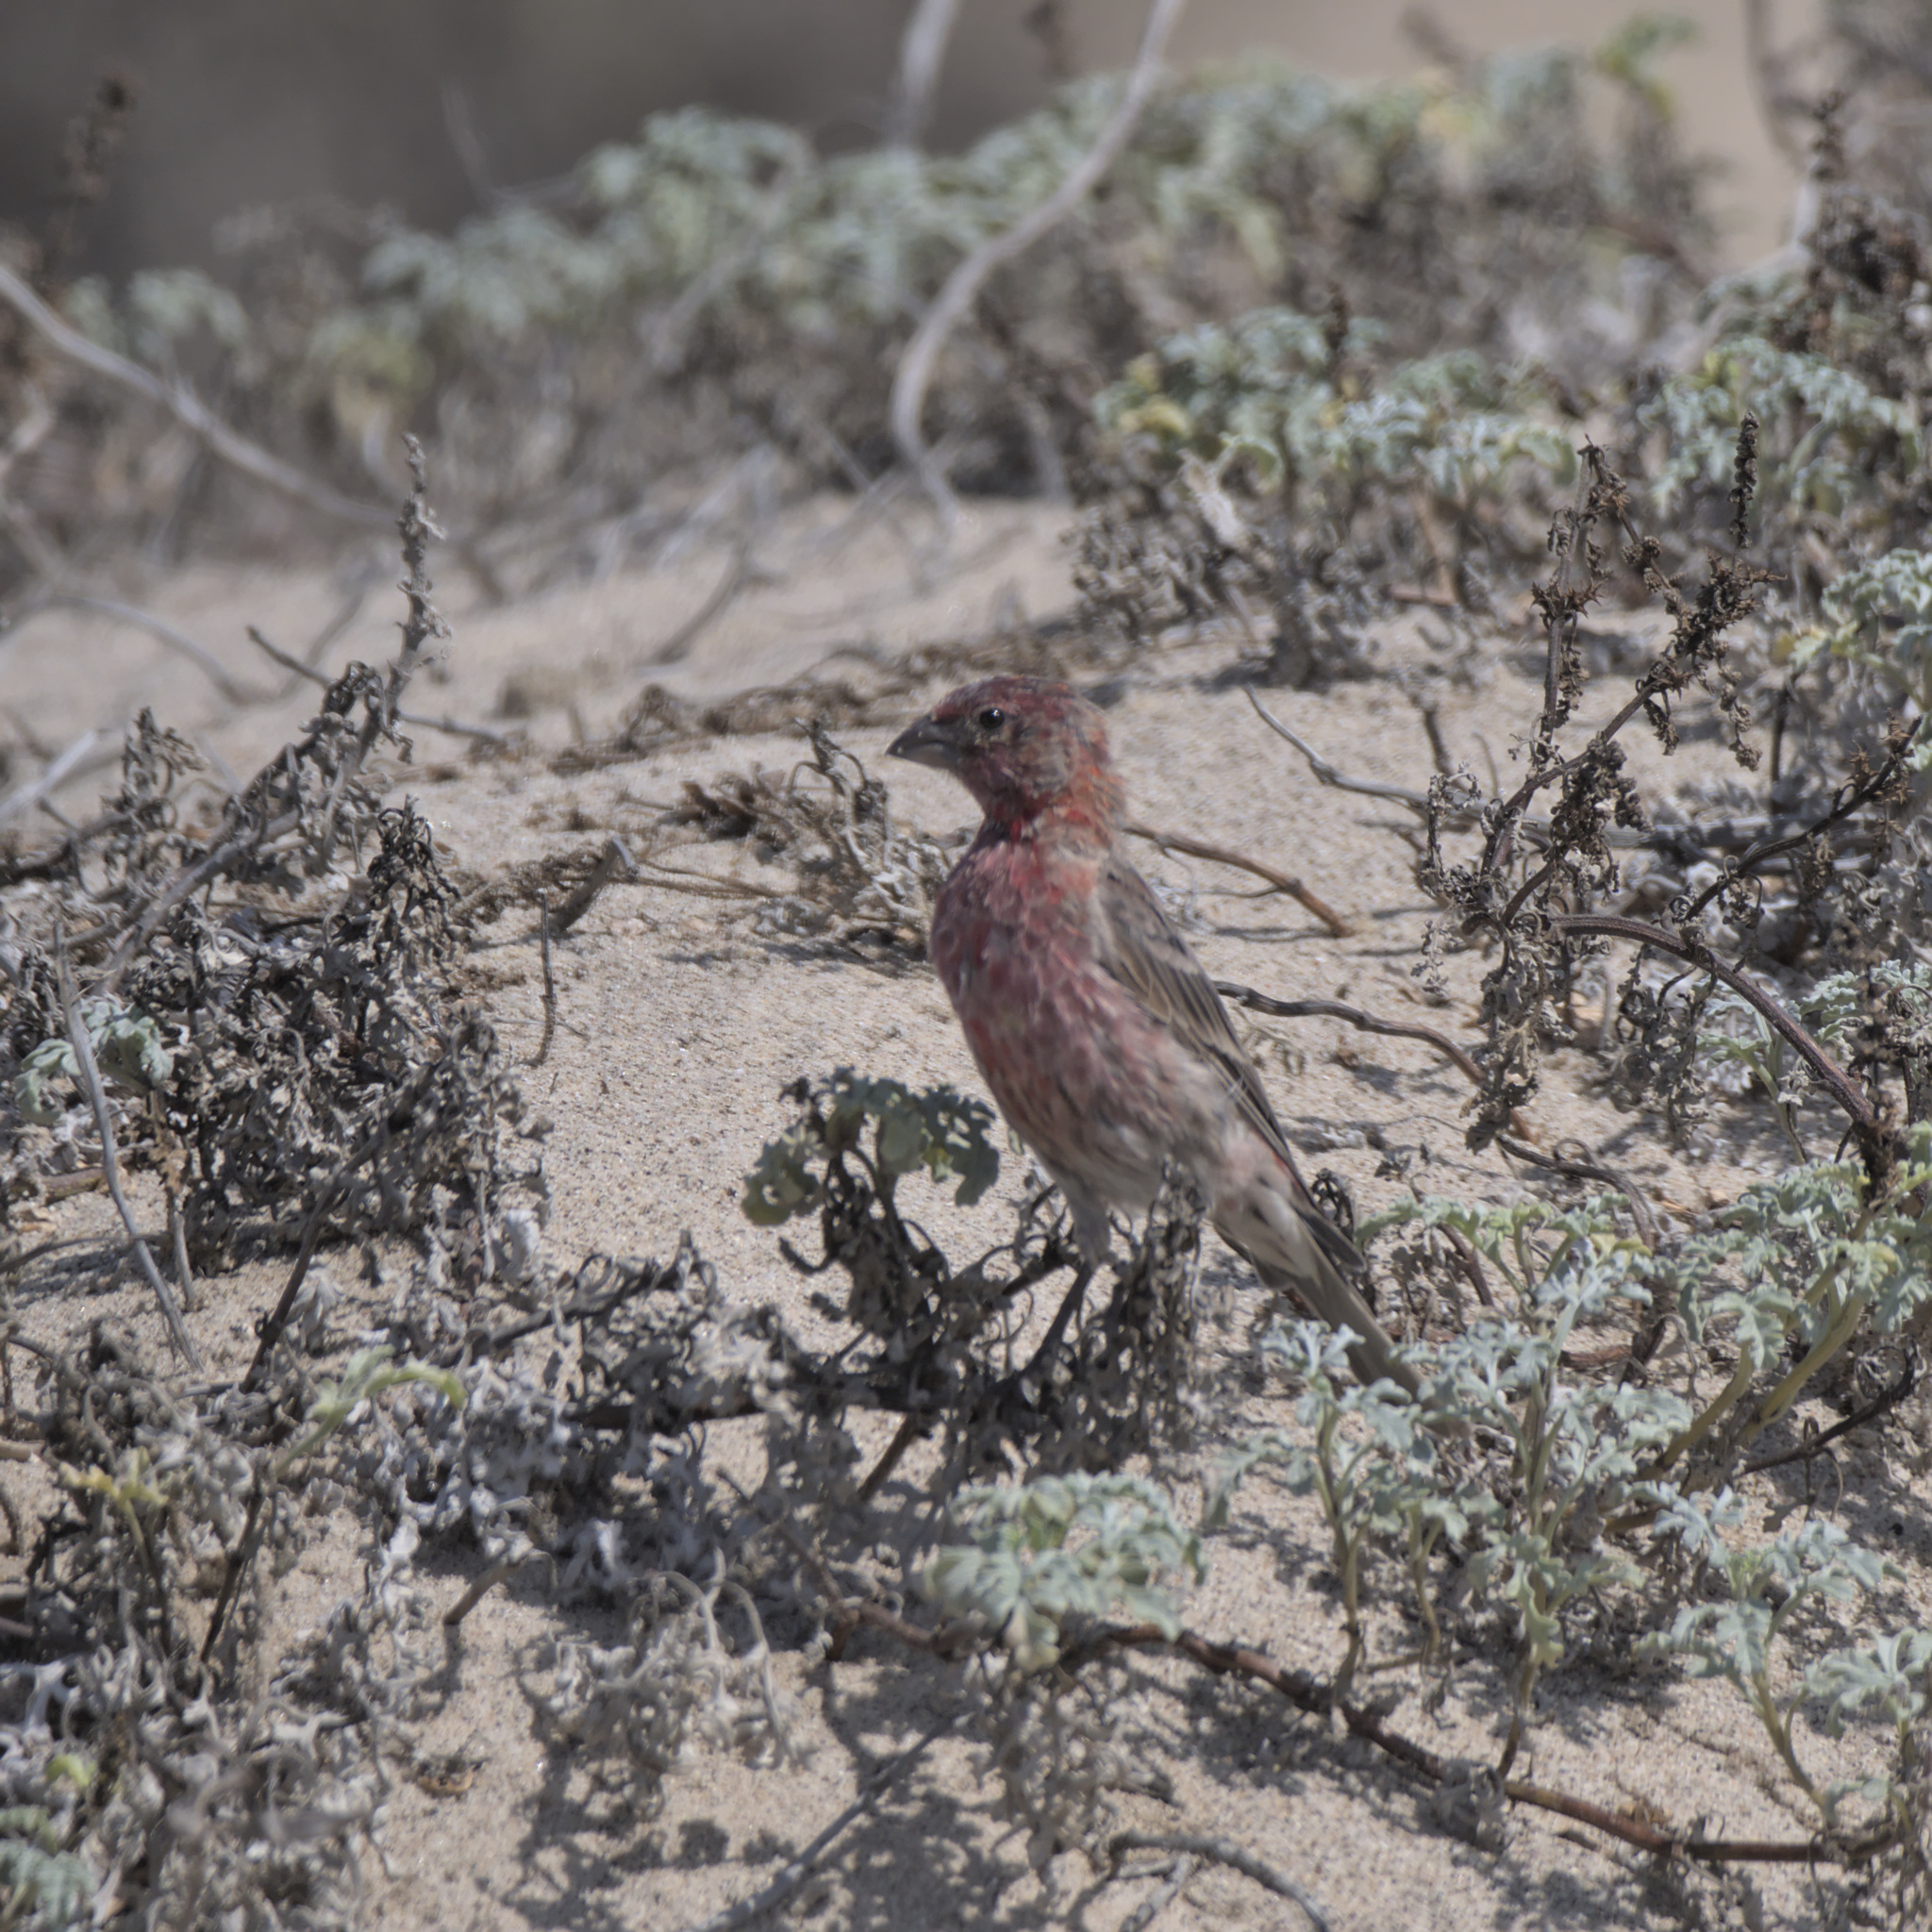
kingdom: Animalia
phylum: Chordata
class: Aves
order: Passeriformes
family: Fringillidae
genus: Haemorhous
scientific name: Haemorhous mexicanus
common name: House finch
